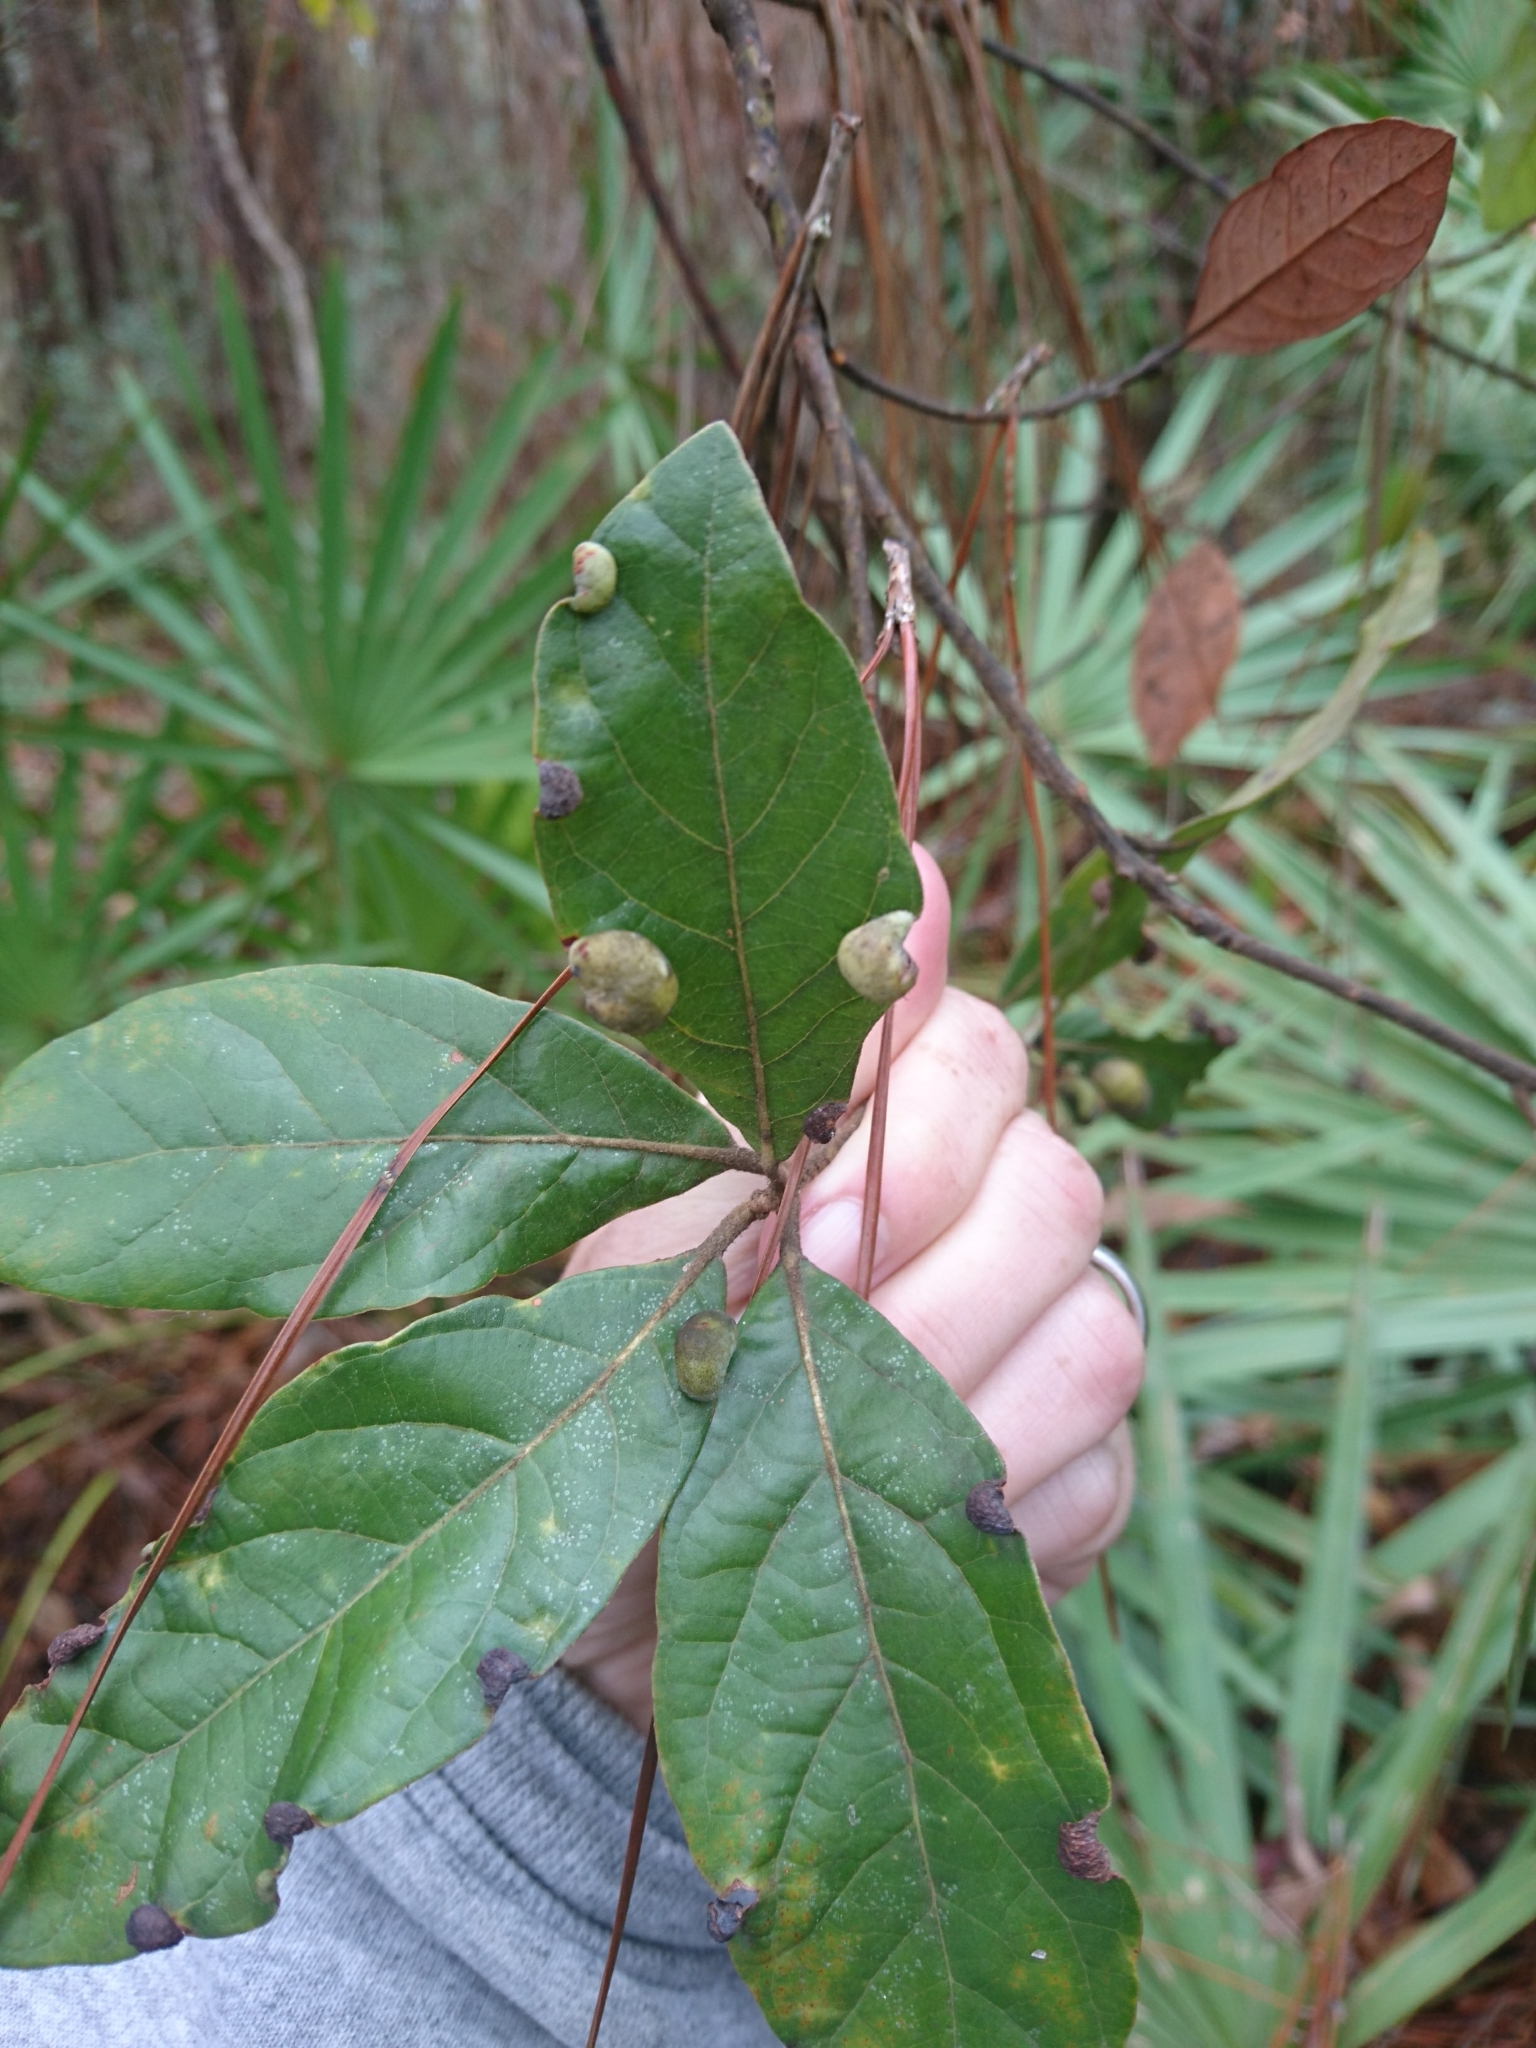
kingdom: Animalia
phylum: Arthropoda
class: Insecta
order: Hemiptera
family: Triozidae
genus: Trioza
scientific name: Trioza magnoliae
